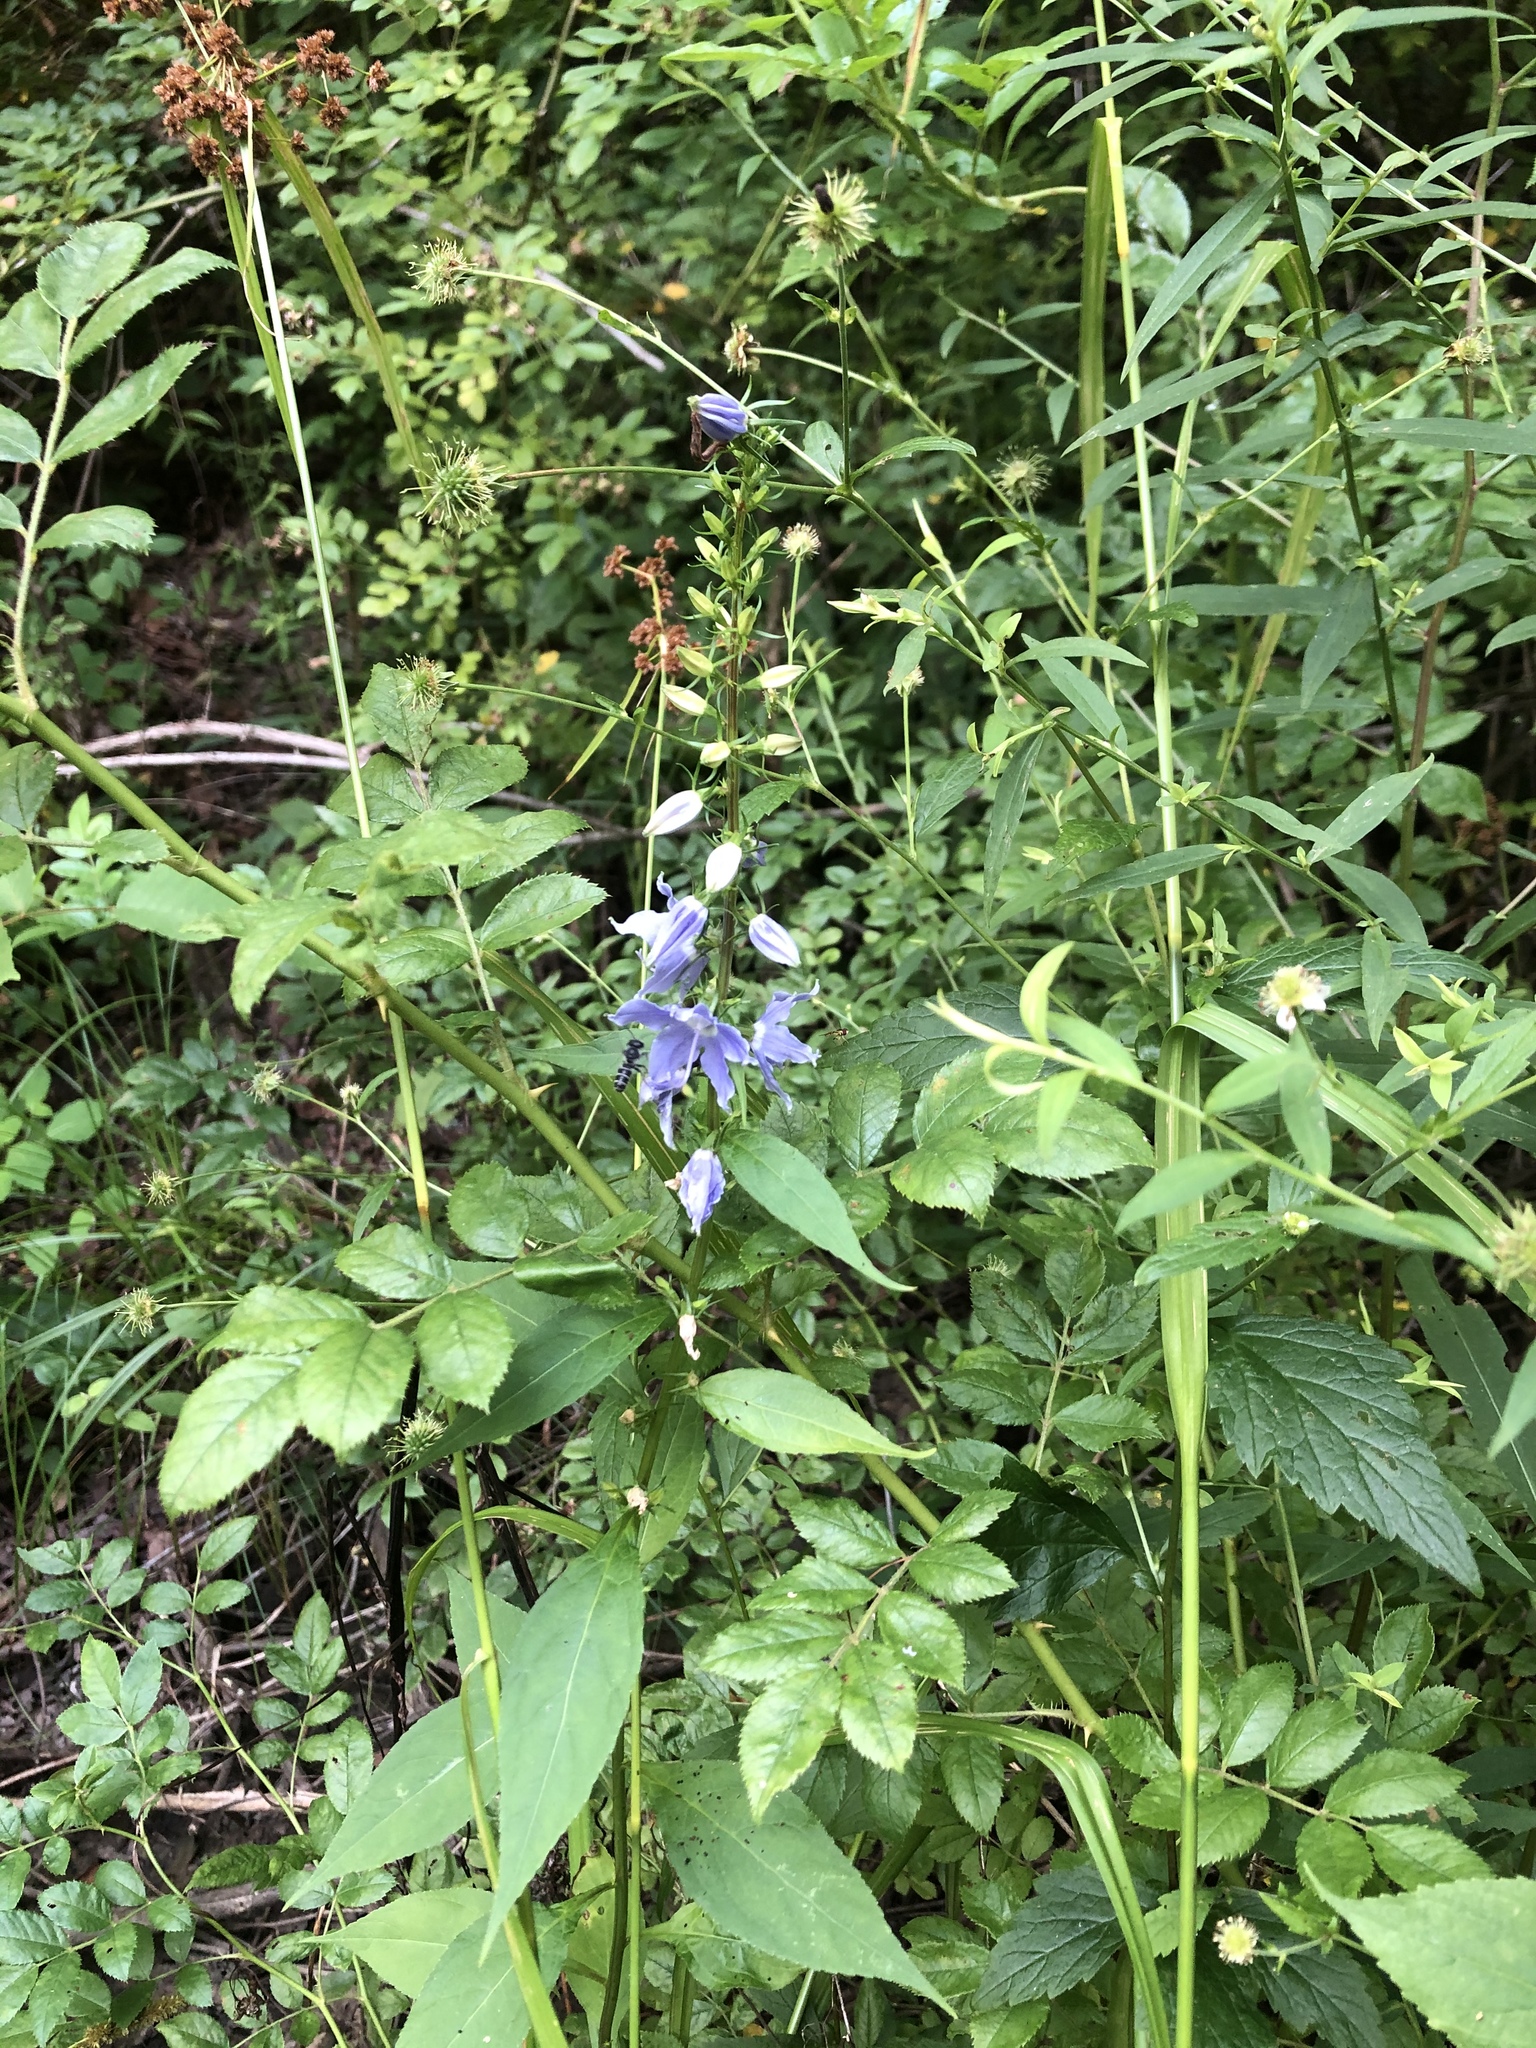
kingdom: Plantae
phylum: Tracheophyta
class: Magnoliopsida
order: Asterales
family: Campanulaceae
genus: Campanulastrum
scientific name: Campanulastrum americanum
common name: American bellflower
